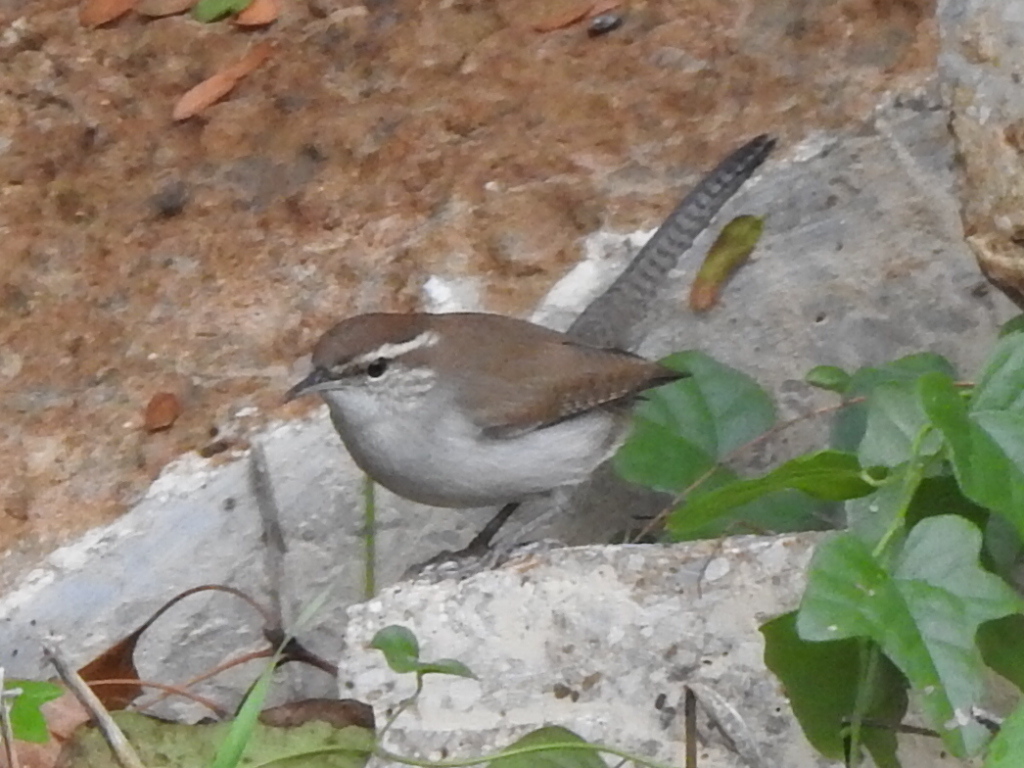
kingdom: Animalia
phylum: Chordata
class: Aves
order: Passeriformes
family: Troglodytidae
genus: Thryomanes
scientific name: Thryomanes bewickii
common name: Bewick's wren
